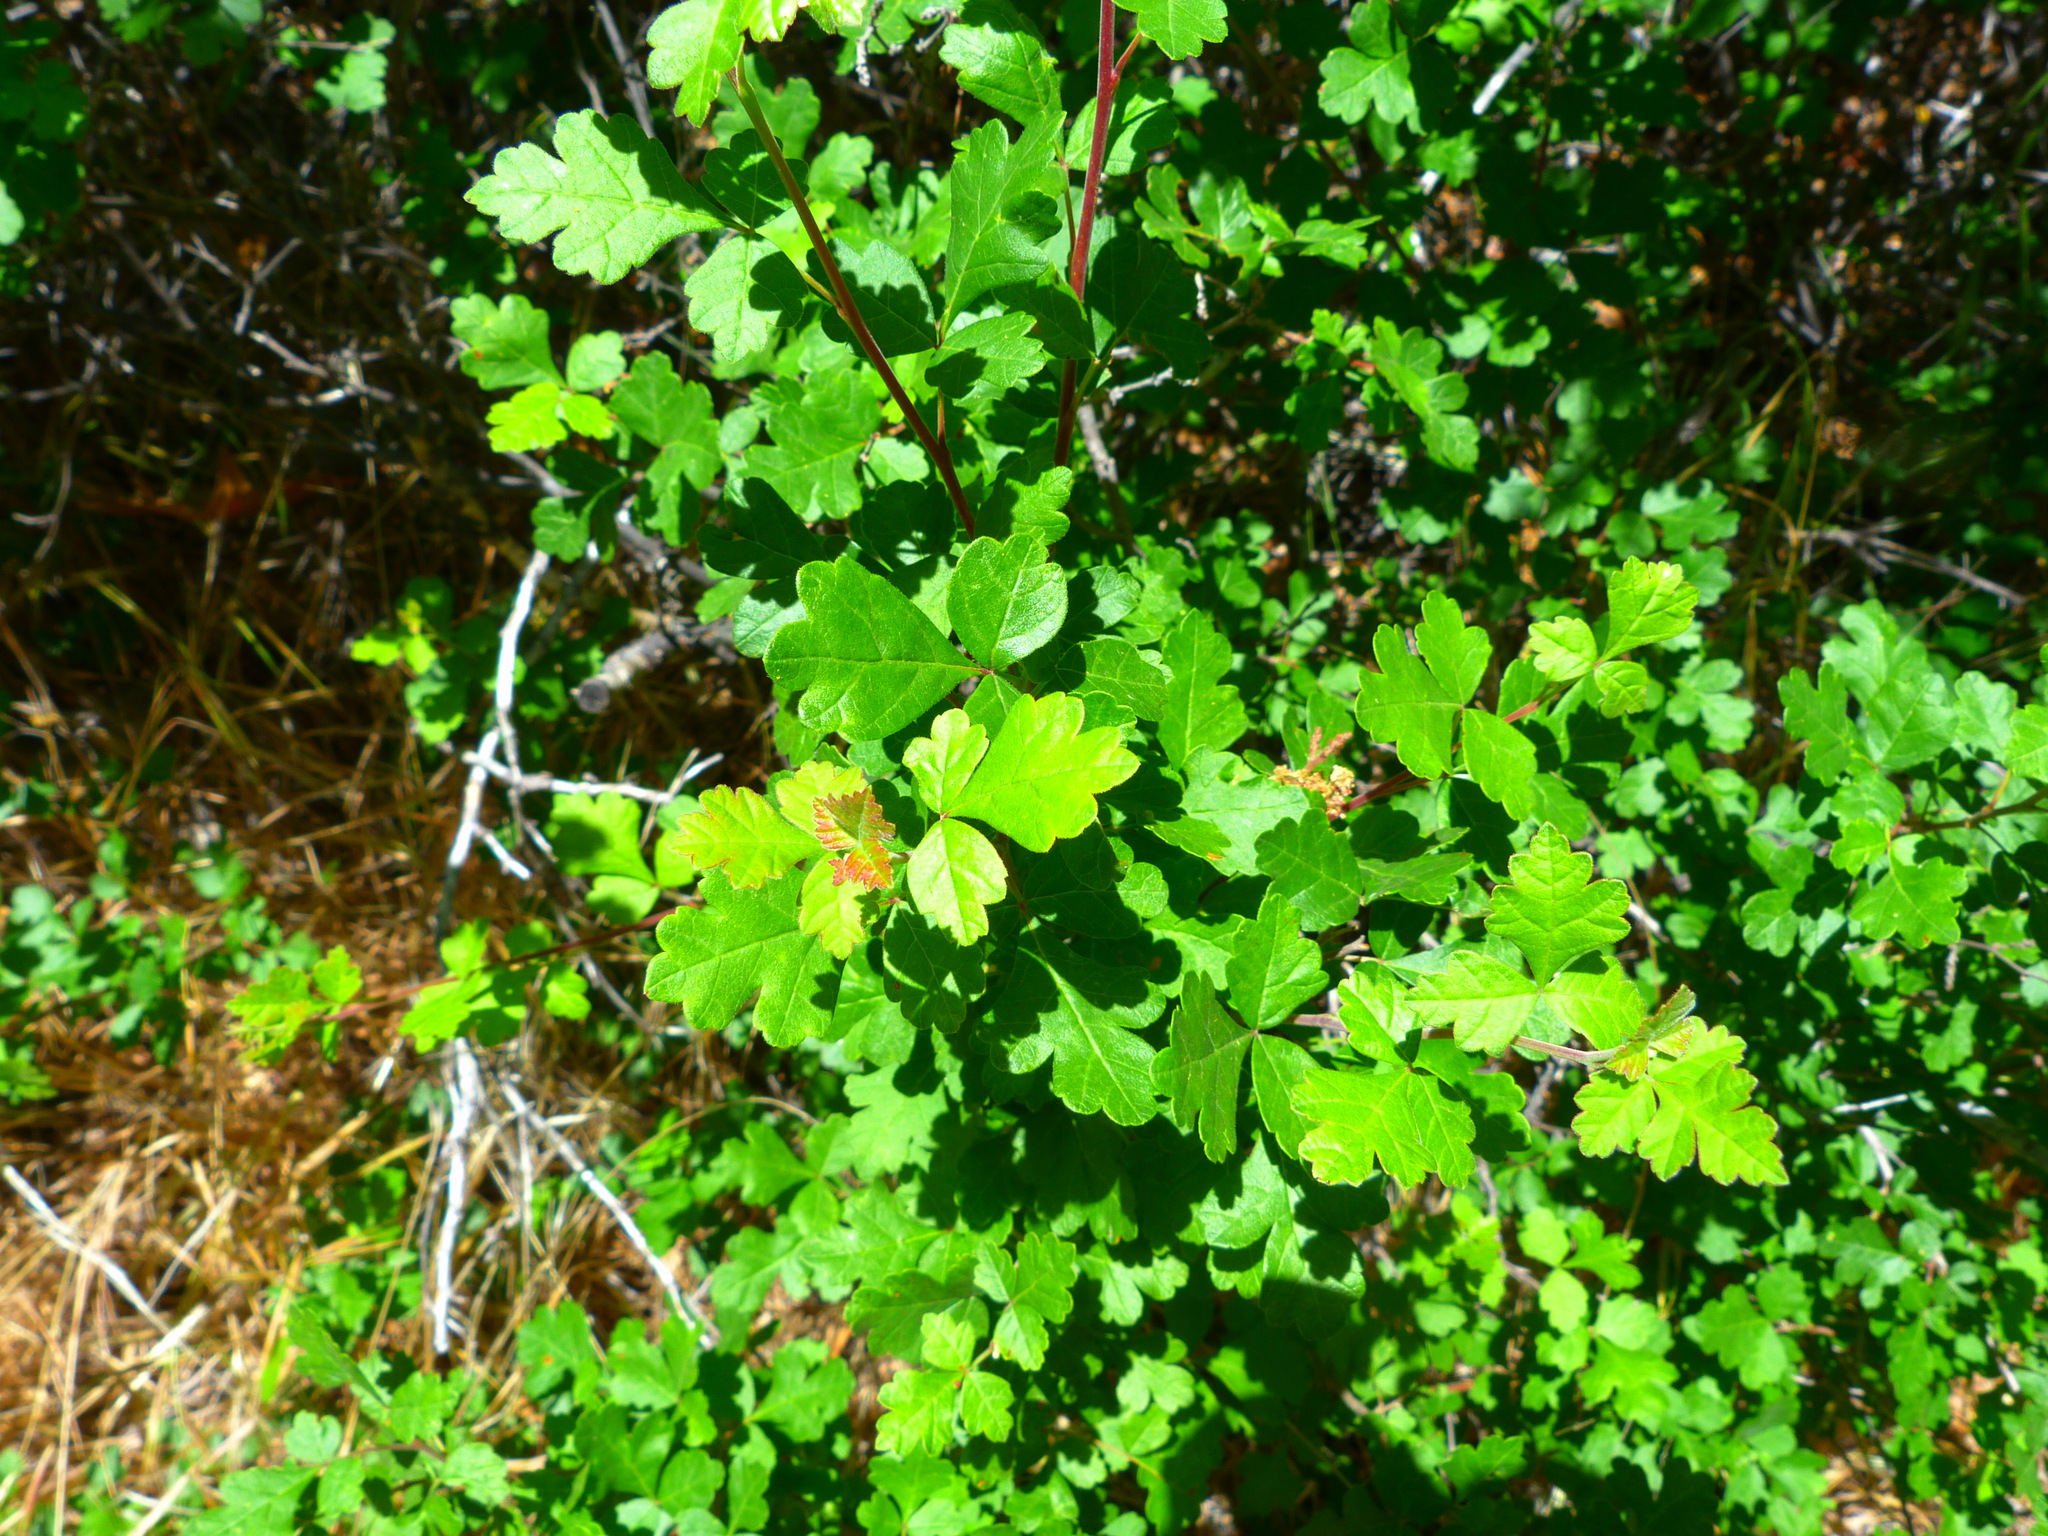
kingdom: Plantae
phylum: Tracheophyta
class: Magnoliopsida
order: Sapindales
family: Anacardiaceae
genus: Rhus
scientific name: Rhus aromatica
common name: Aromatic sumac
